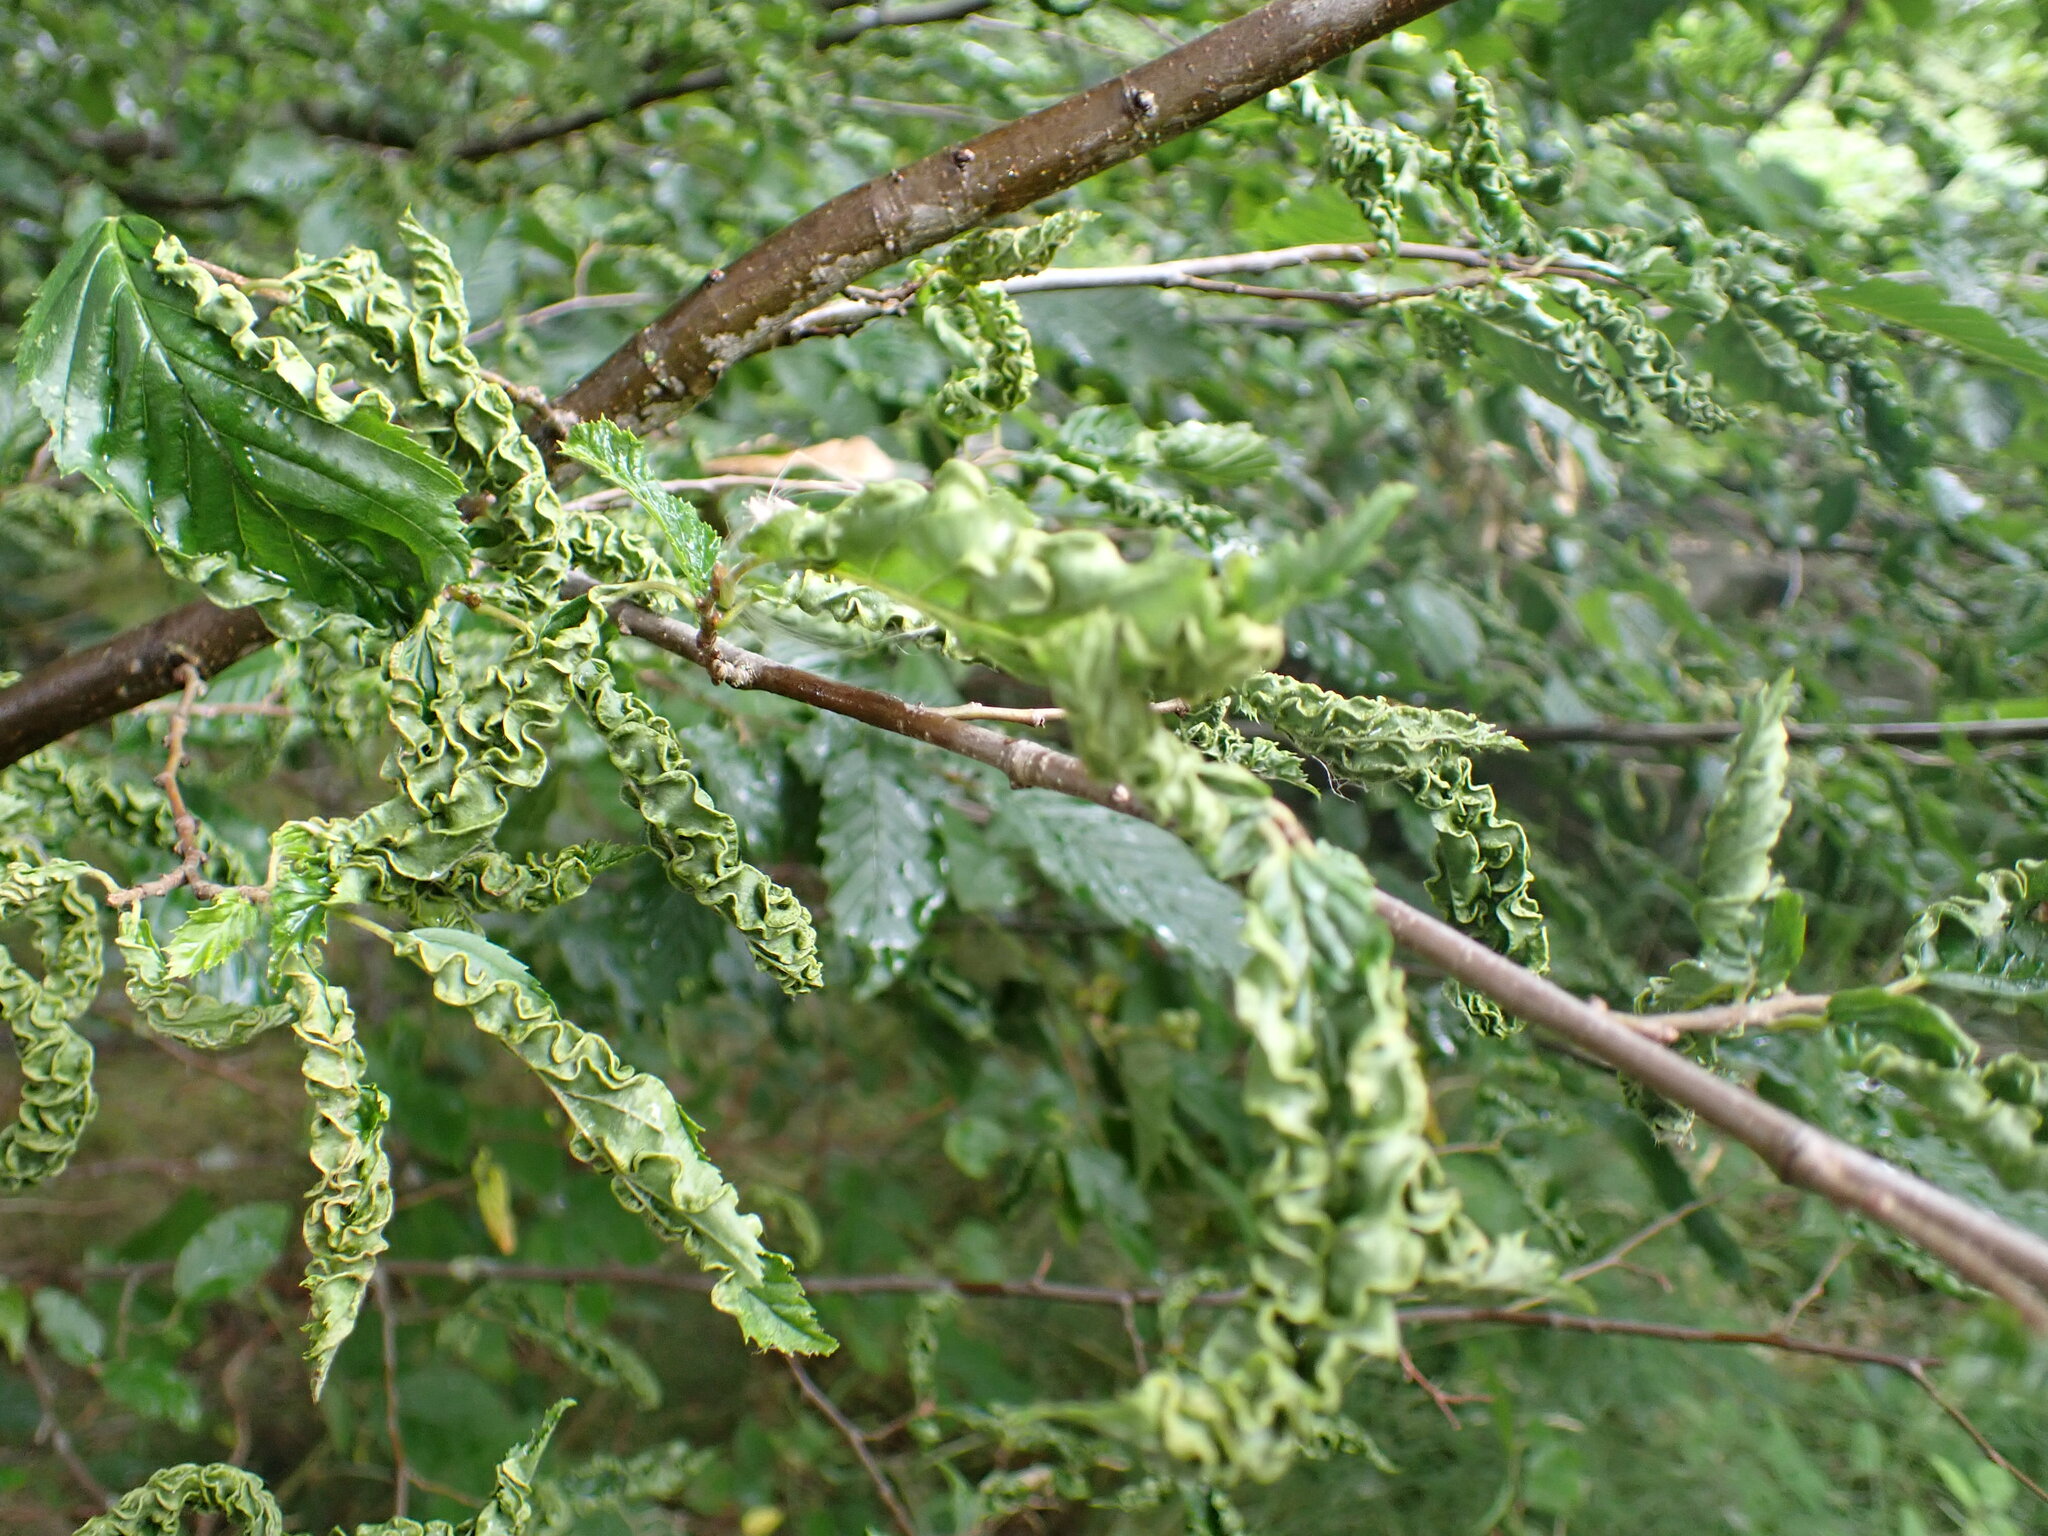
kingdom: Animalia
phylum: Arthropoda
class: Arachnida
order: Trombidiformes
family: Eriophyidae
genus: Aculops
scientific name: Aculops macrotrichus
